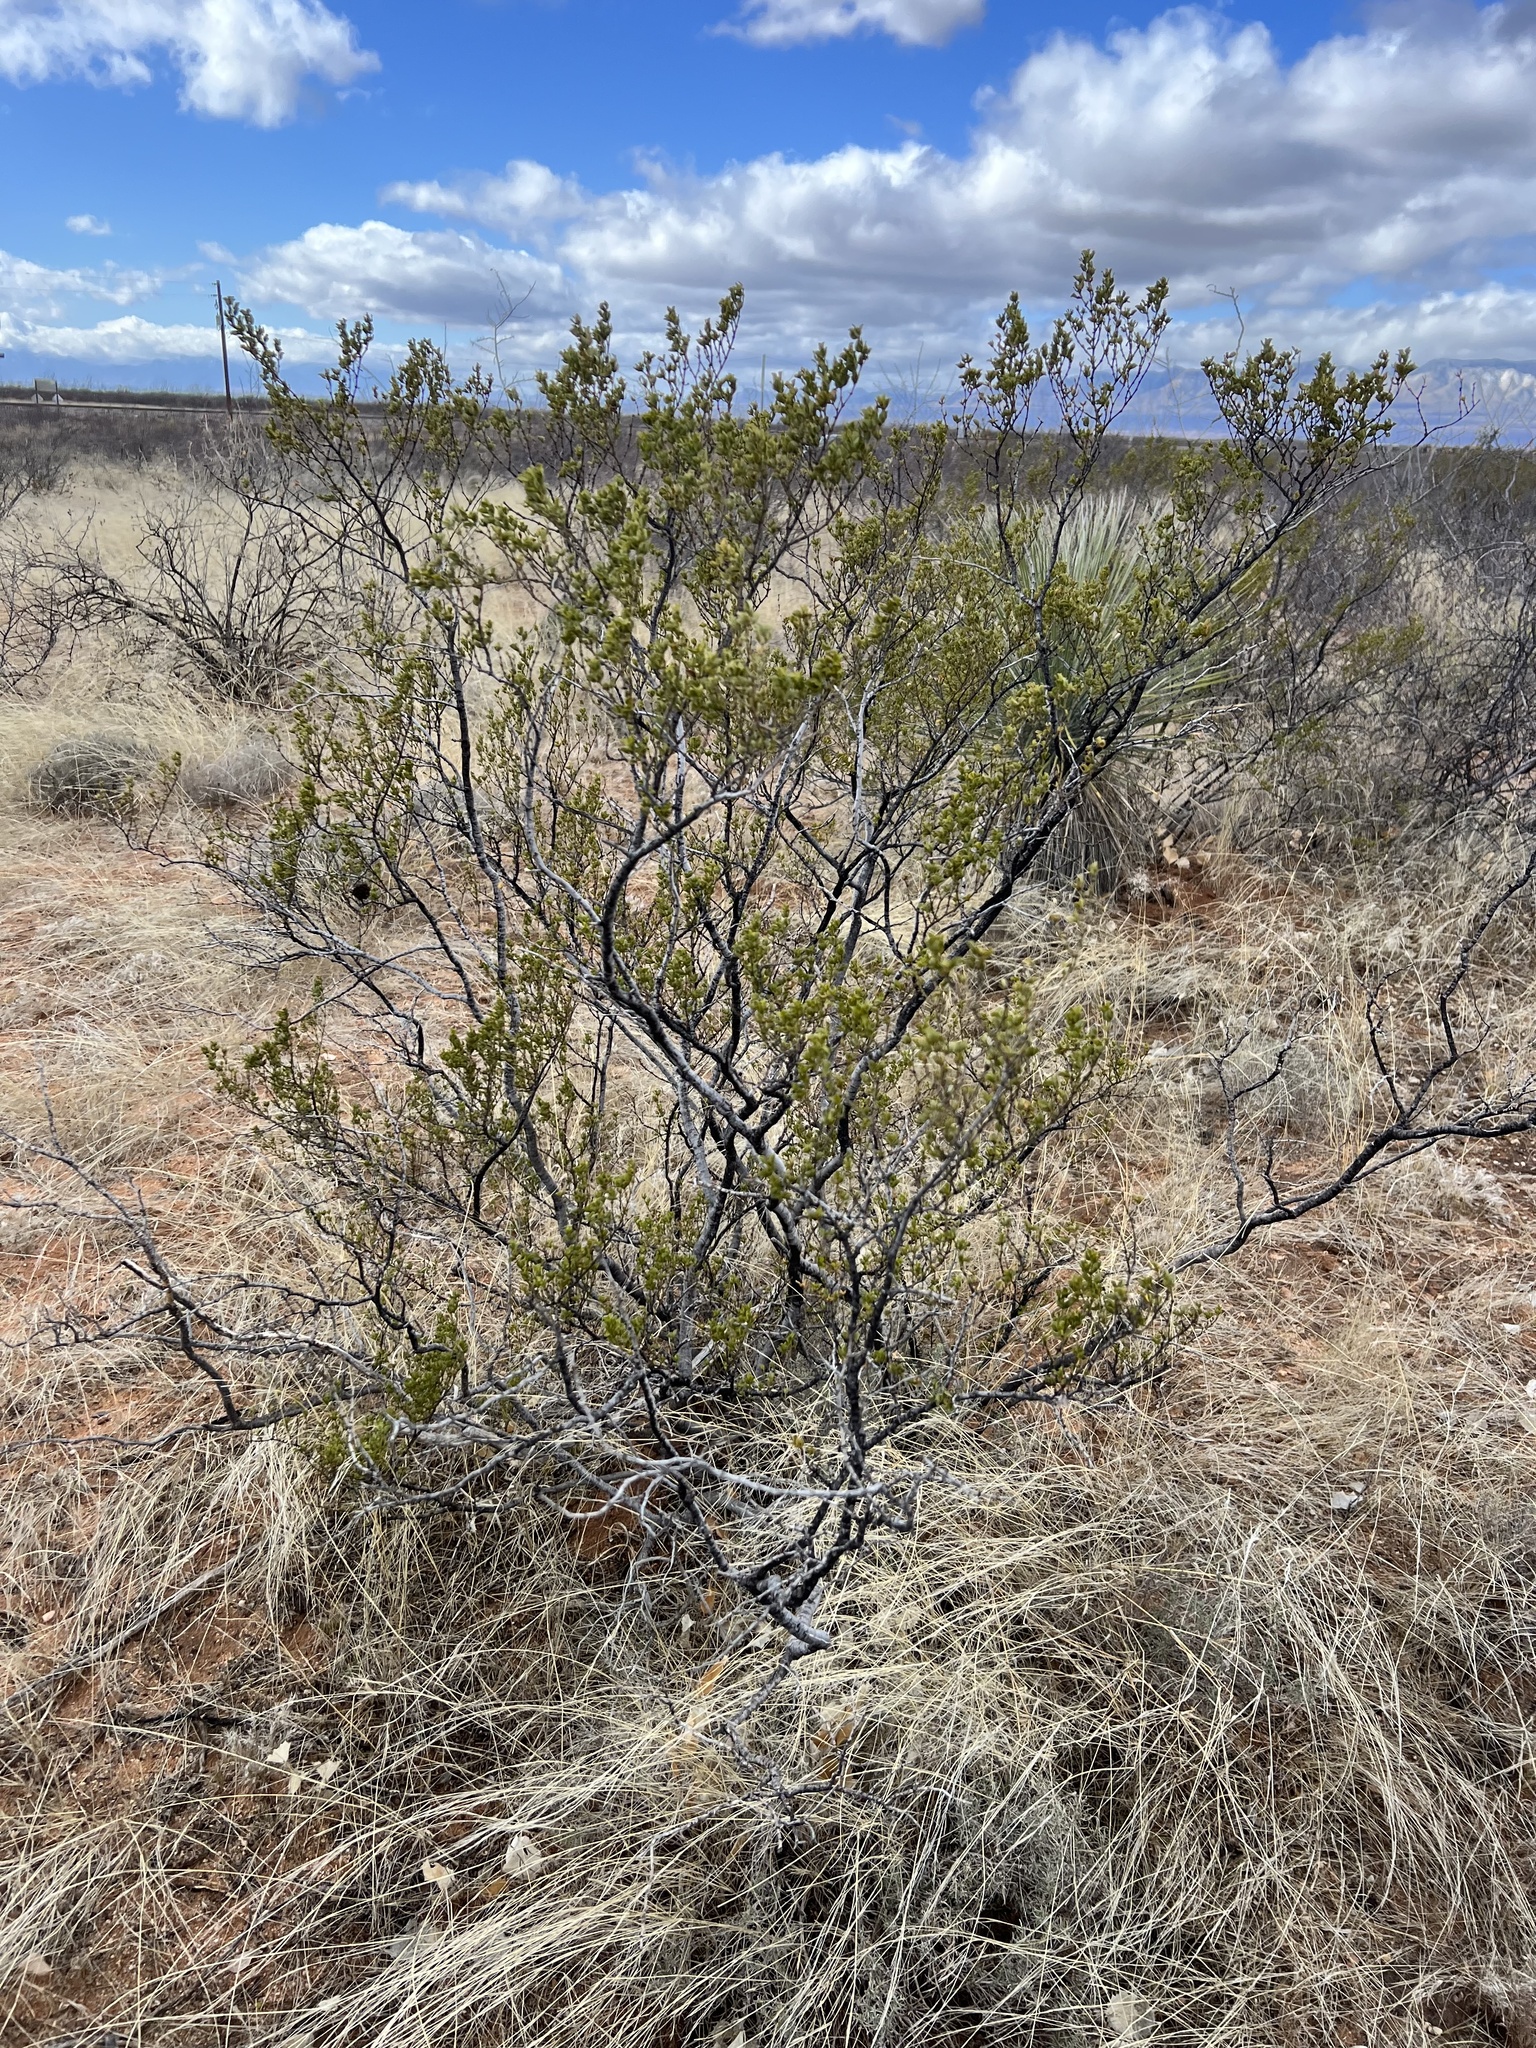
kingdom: Plantae
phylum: Tracheophyta
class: Magnoliopsida
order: Zygophyllales
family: Zygophyllaceae
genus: Larrea
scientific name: Larrea tridentata
